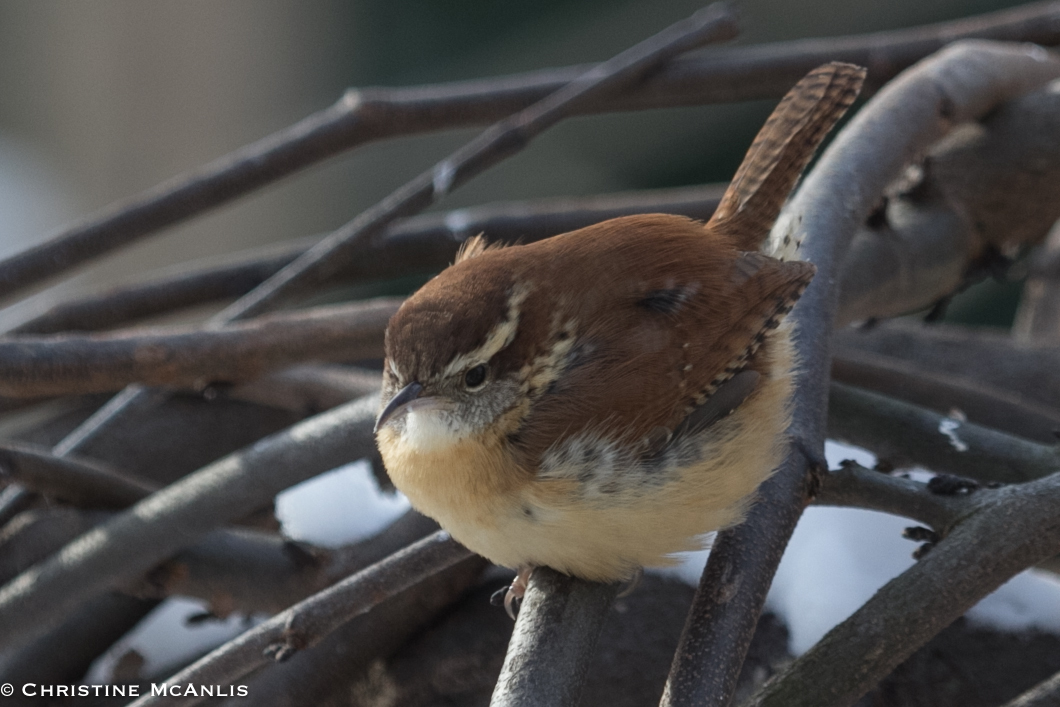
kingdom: Animalia
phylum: Chordata
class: Aves
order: Passeriformes
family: Troglodytidae
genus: Thryothorus
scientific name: Thryothorus ludovicianus
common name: Carolina wren
